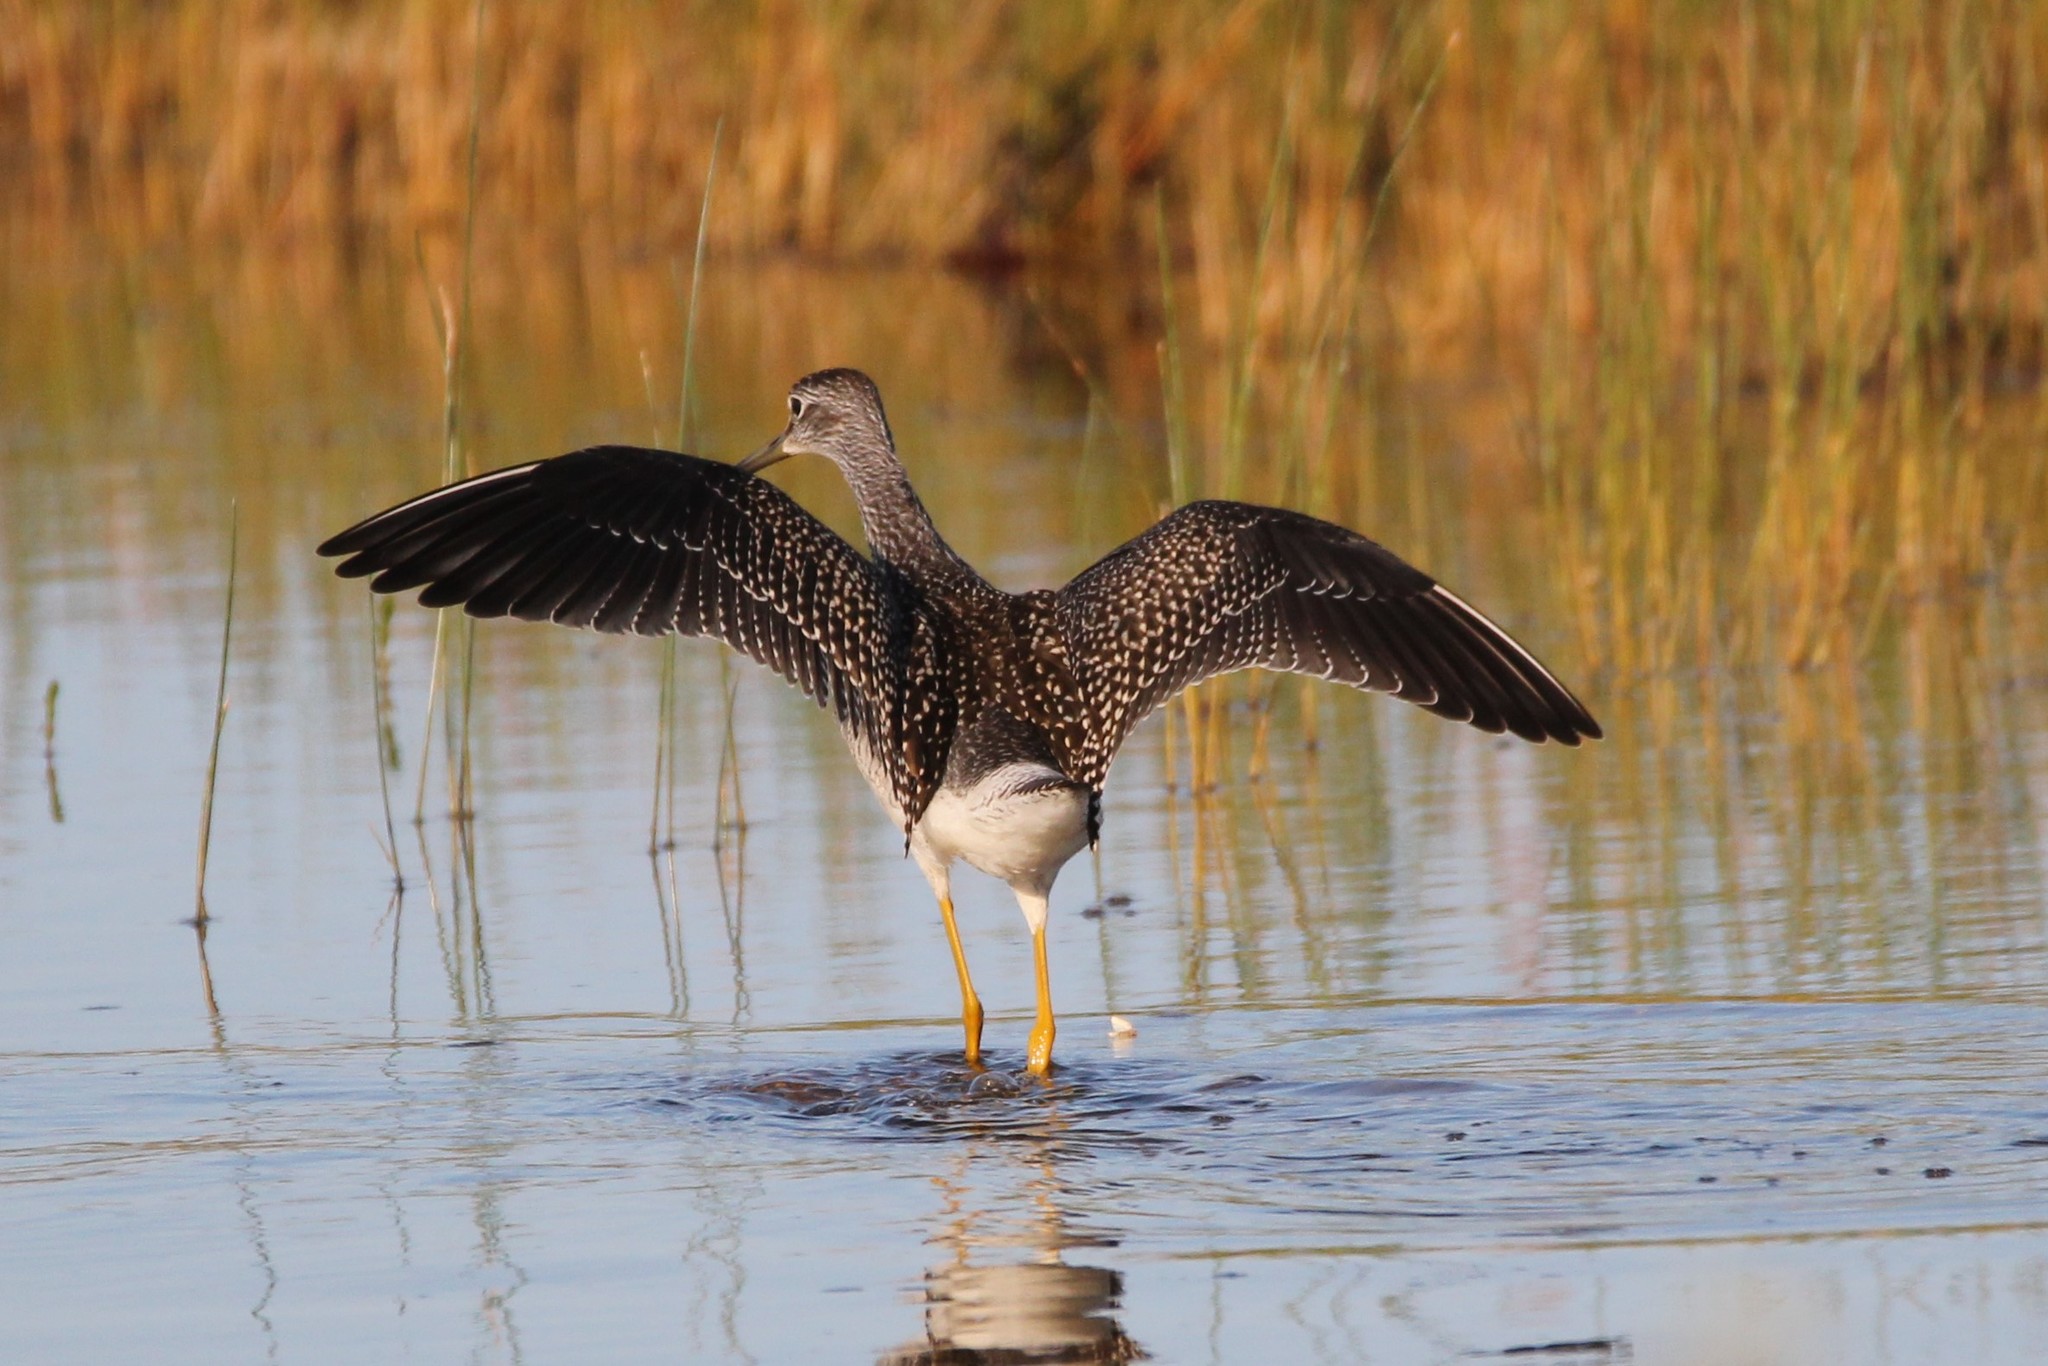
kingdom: Animalia
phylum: Chordata
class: Aves
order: Charadriiformes
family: Scolopacidae
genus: Tringa
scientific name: Tringa melanoleuca
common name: Greater yellowlegs
